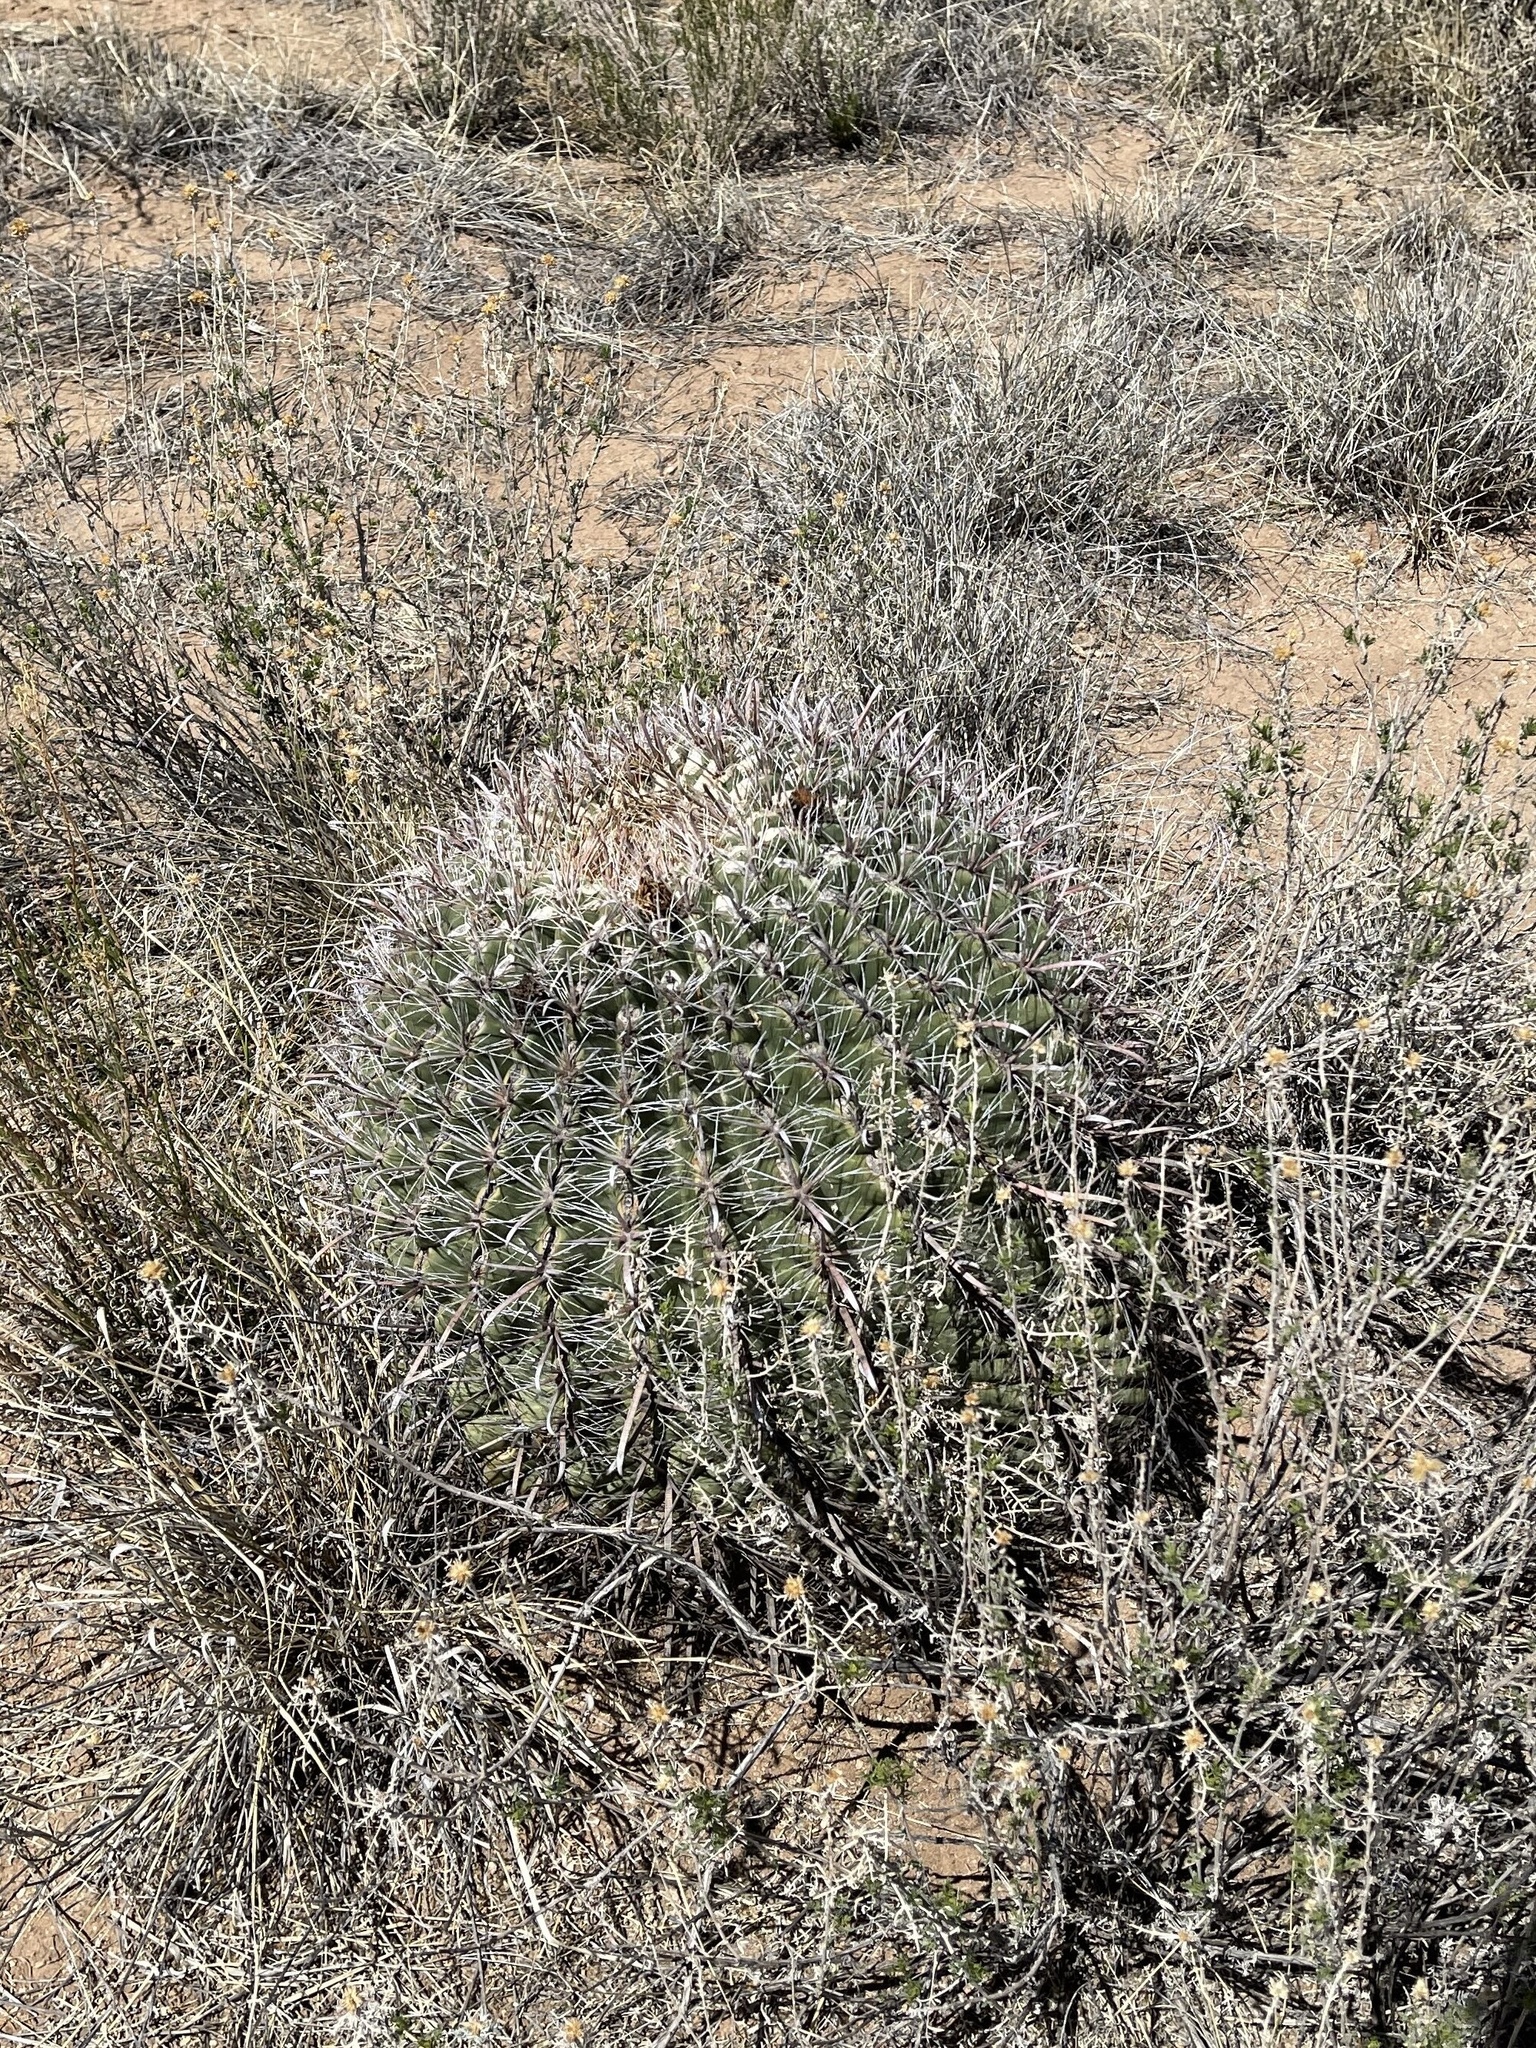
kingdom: Plantae
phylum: Tracheophyta
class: Magnoliopsida
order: Caryophyllales
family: Cactaceae
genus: Ferocactus
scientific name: Ferocactus wislizeni
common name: Candy barrel cactus
